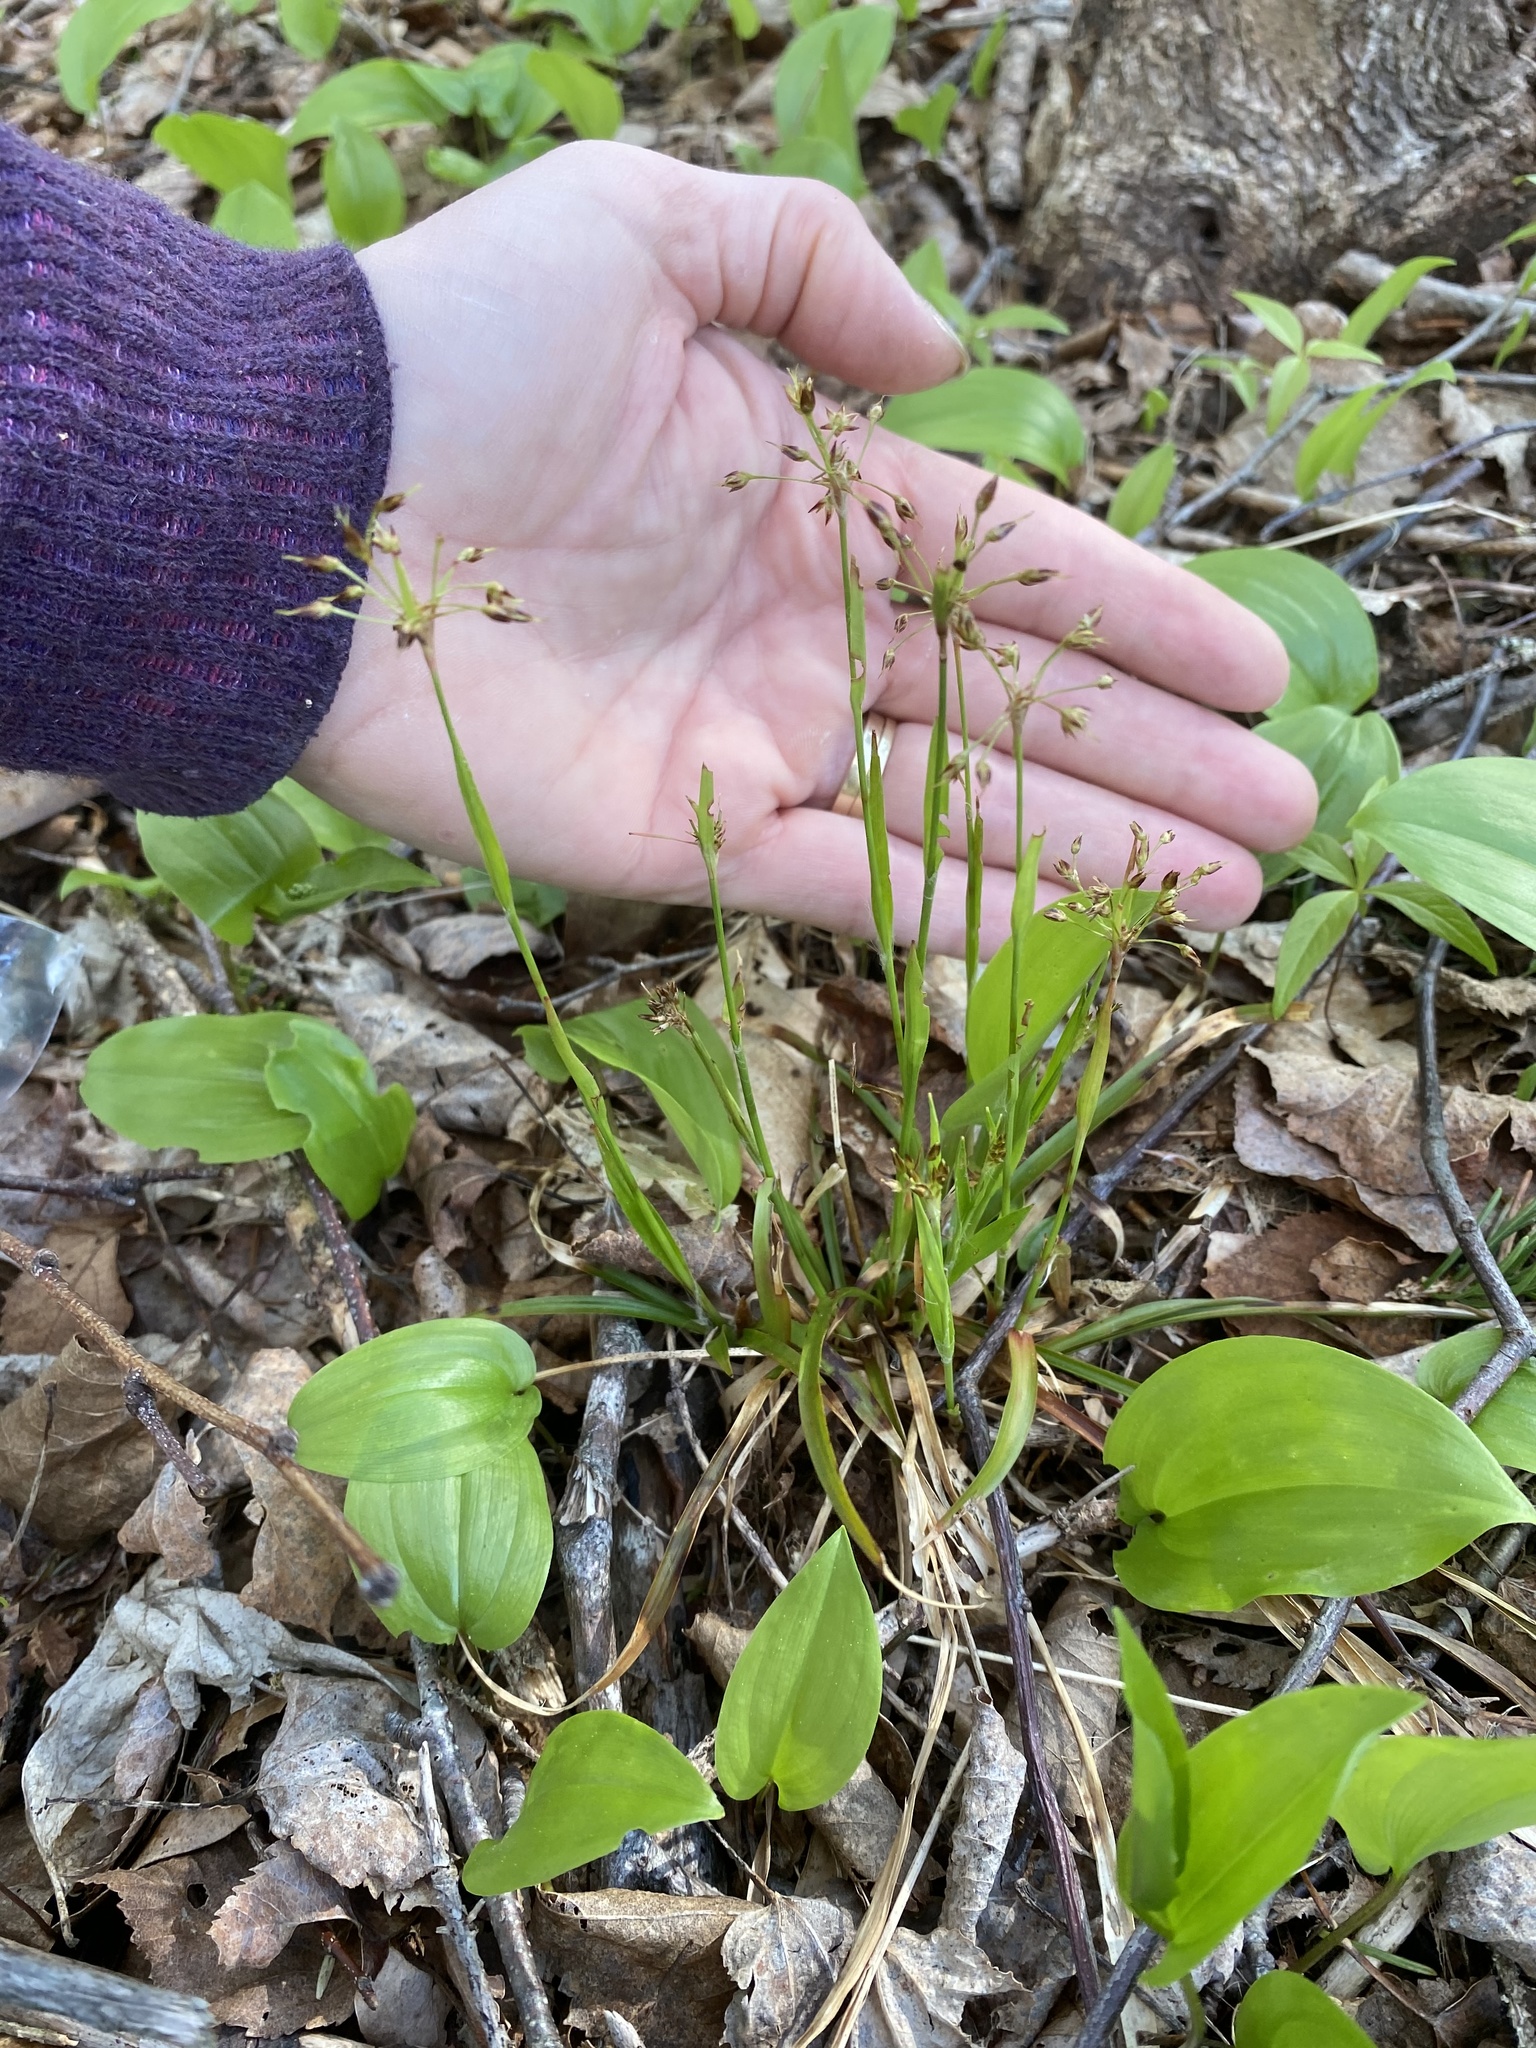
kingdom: Plantae
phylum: Tracheophyta
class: Liliopsida
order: Poales
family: Juncaceae
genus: Luzula
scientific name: Luzula acuminata
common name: Hairy woodrush
